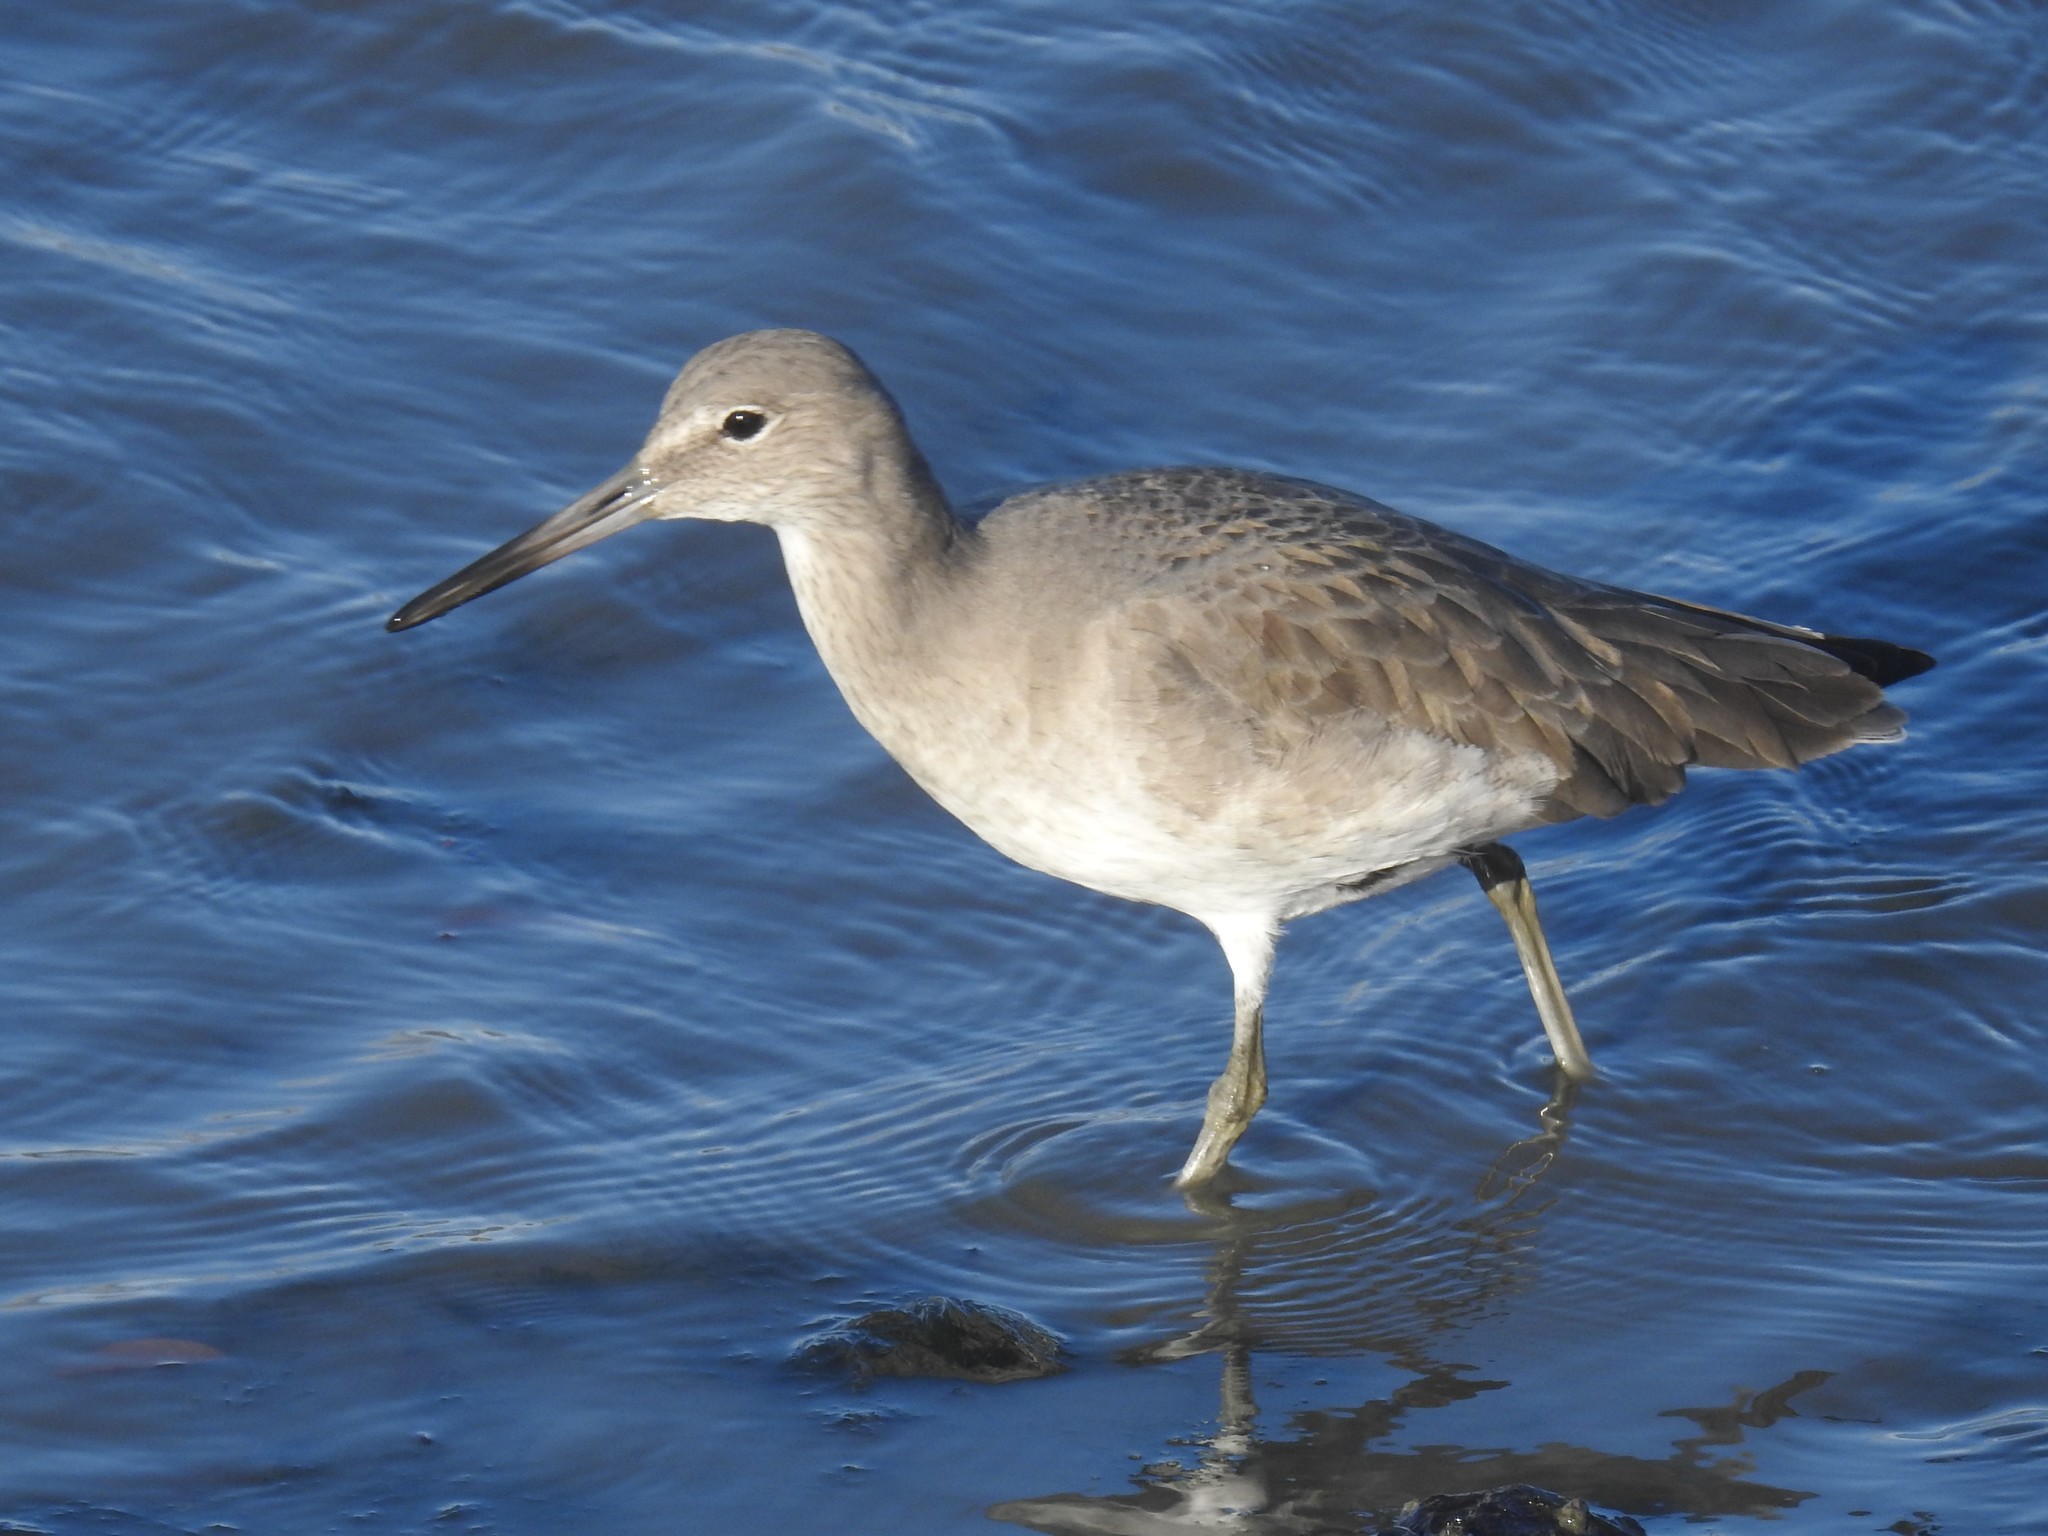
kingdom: Animalia
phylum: Chordata
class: Aves
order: Charadriiformes
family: Scolopacidae
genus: Tringa
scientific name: Tringa semipalmata
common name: Willet
